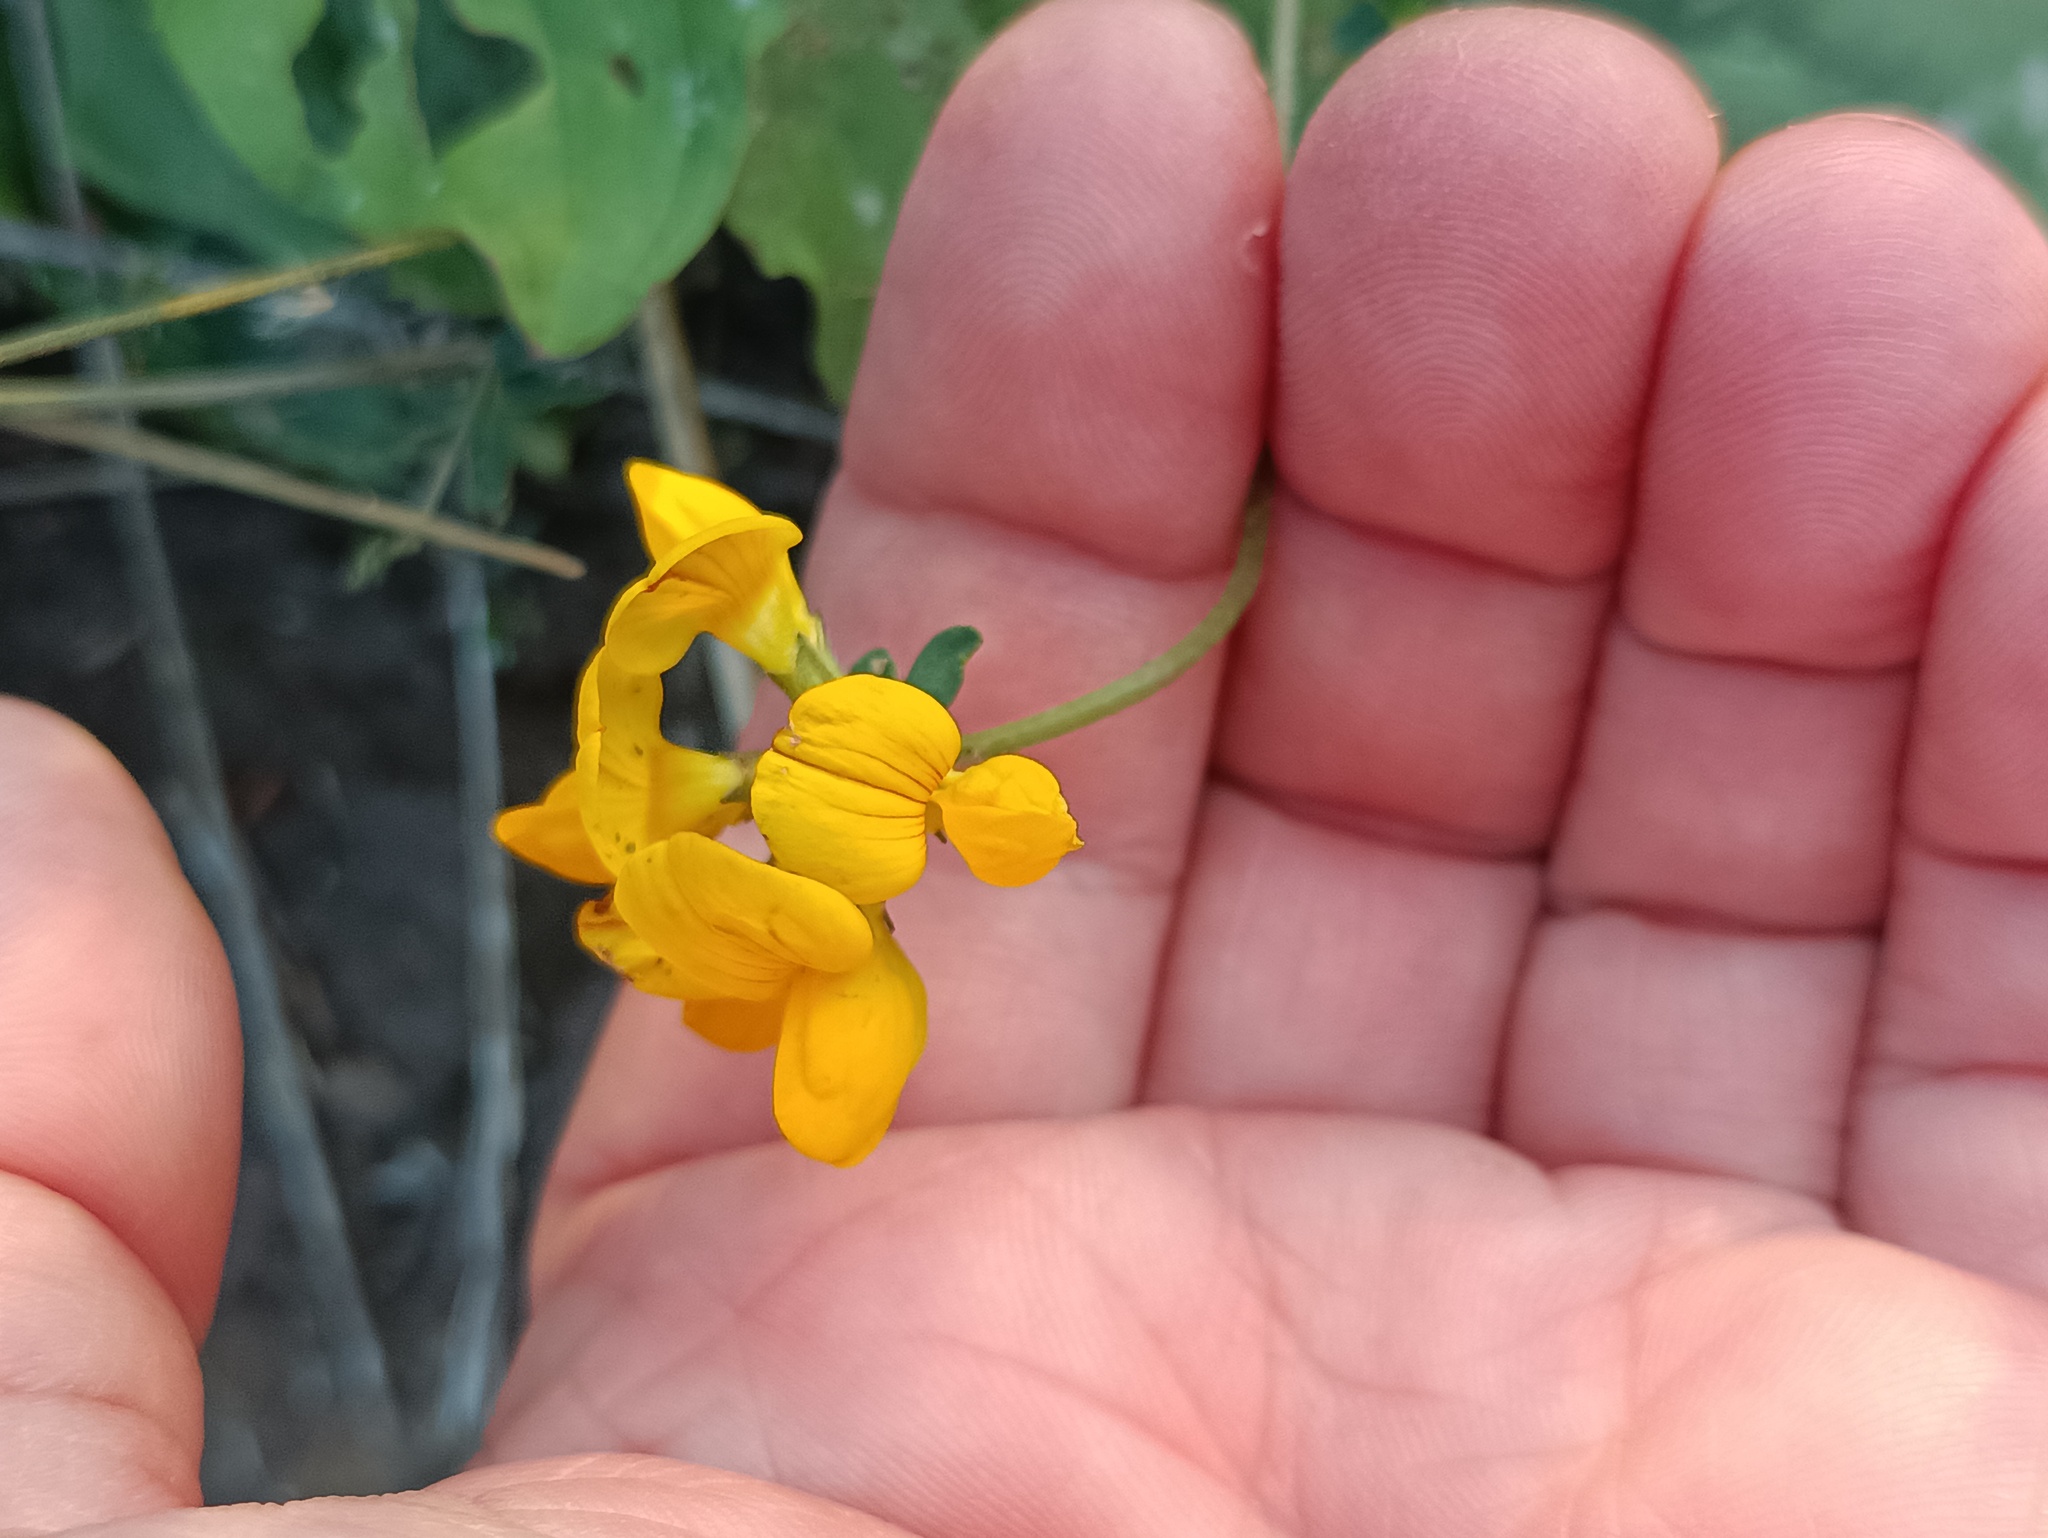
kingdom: Plantae
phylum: Tracheophyta
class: Magnoliopsida
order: Fabales
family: Fabaceae
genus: Lotus
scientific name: Lotus corniculatus
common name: Common bird's-foot-trefoil
